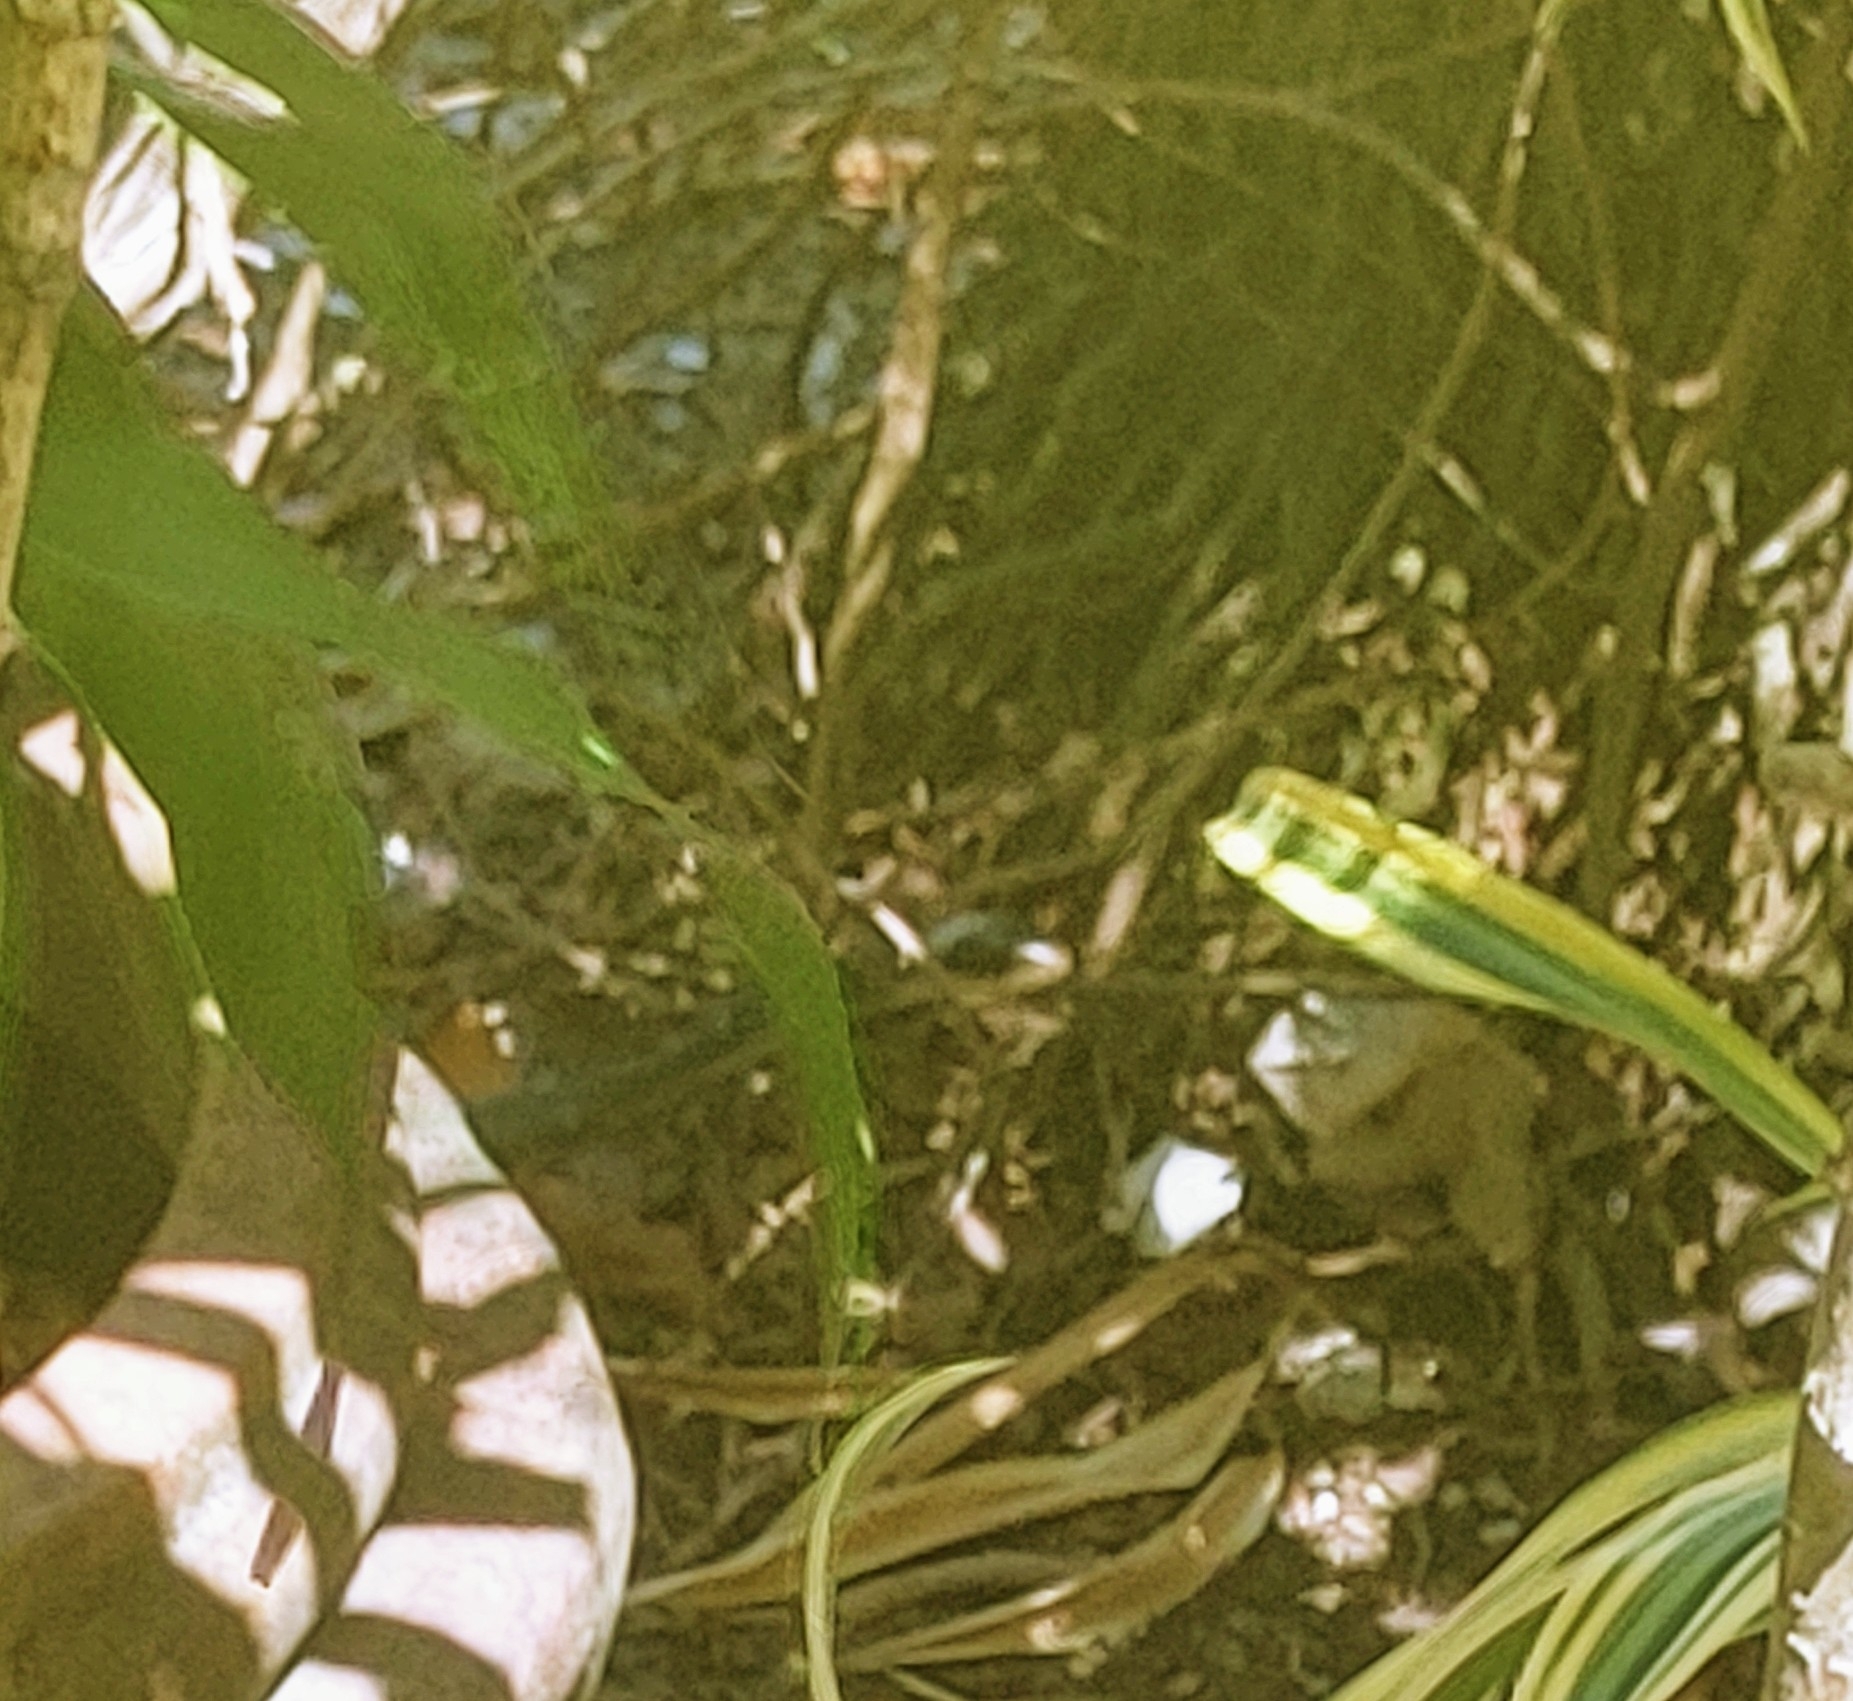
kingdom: Animalia
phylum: Chordata
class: Squamata
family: Colubridae
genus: Coluber
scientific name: Coluber constrictor
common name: Eastern racer
